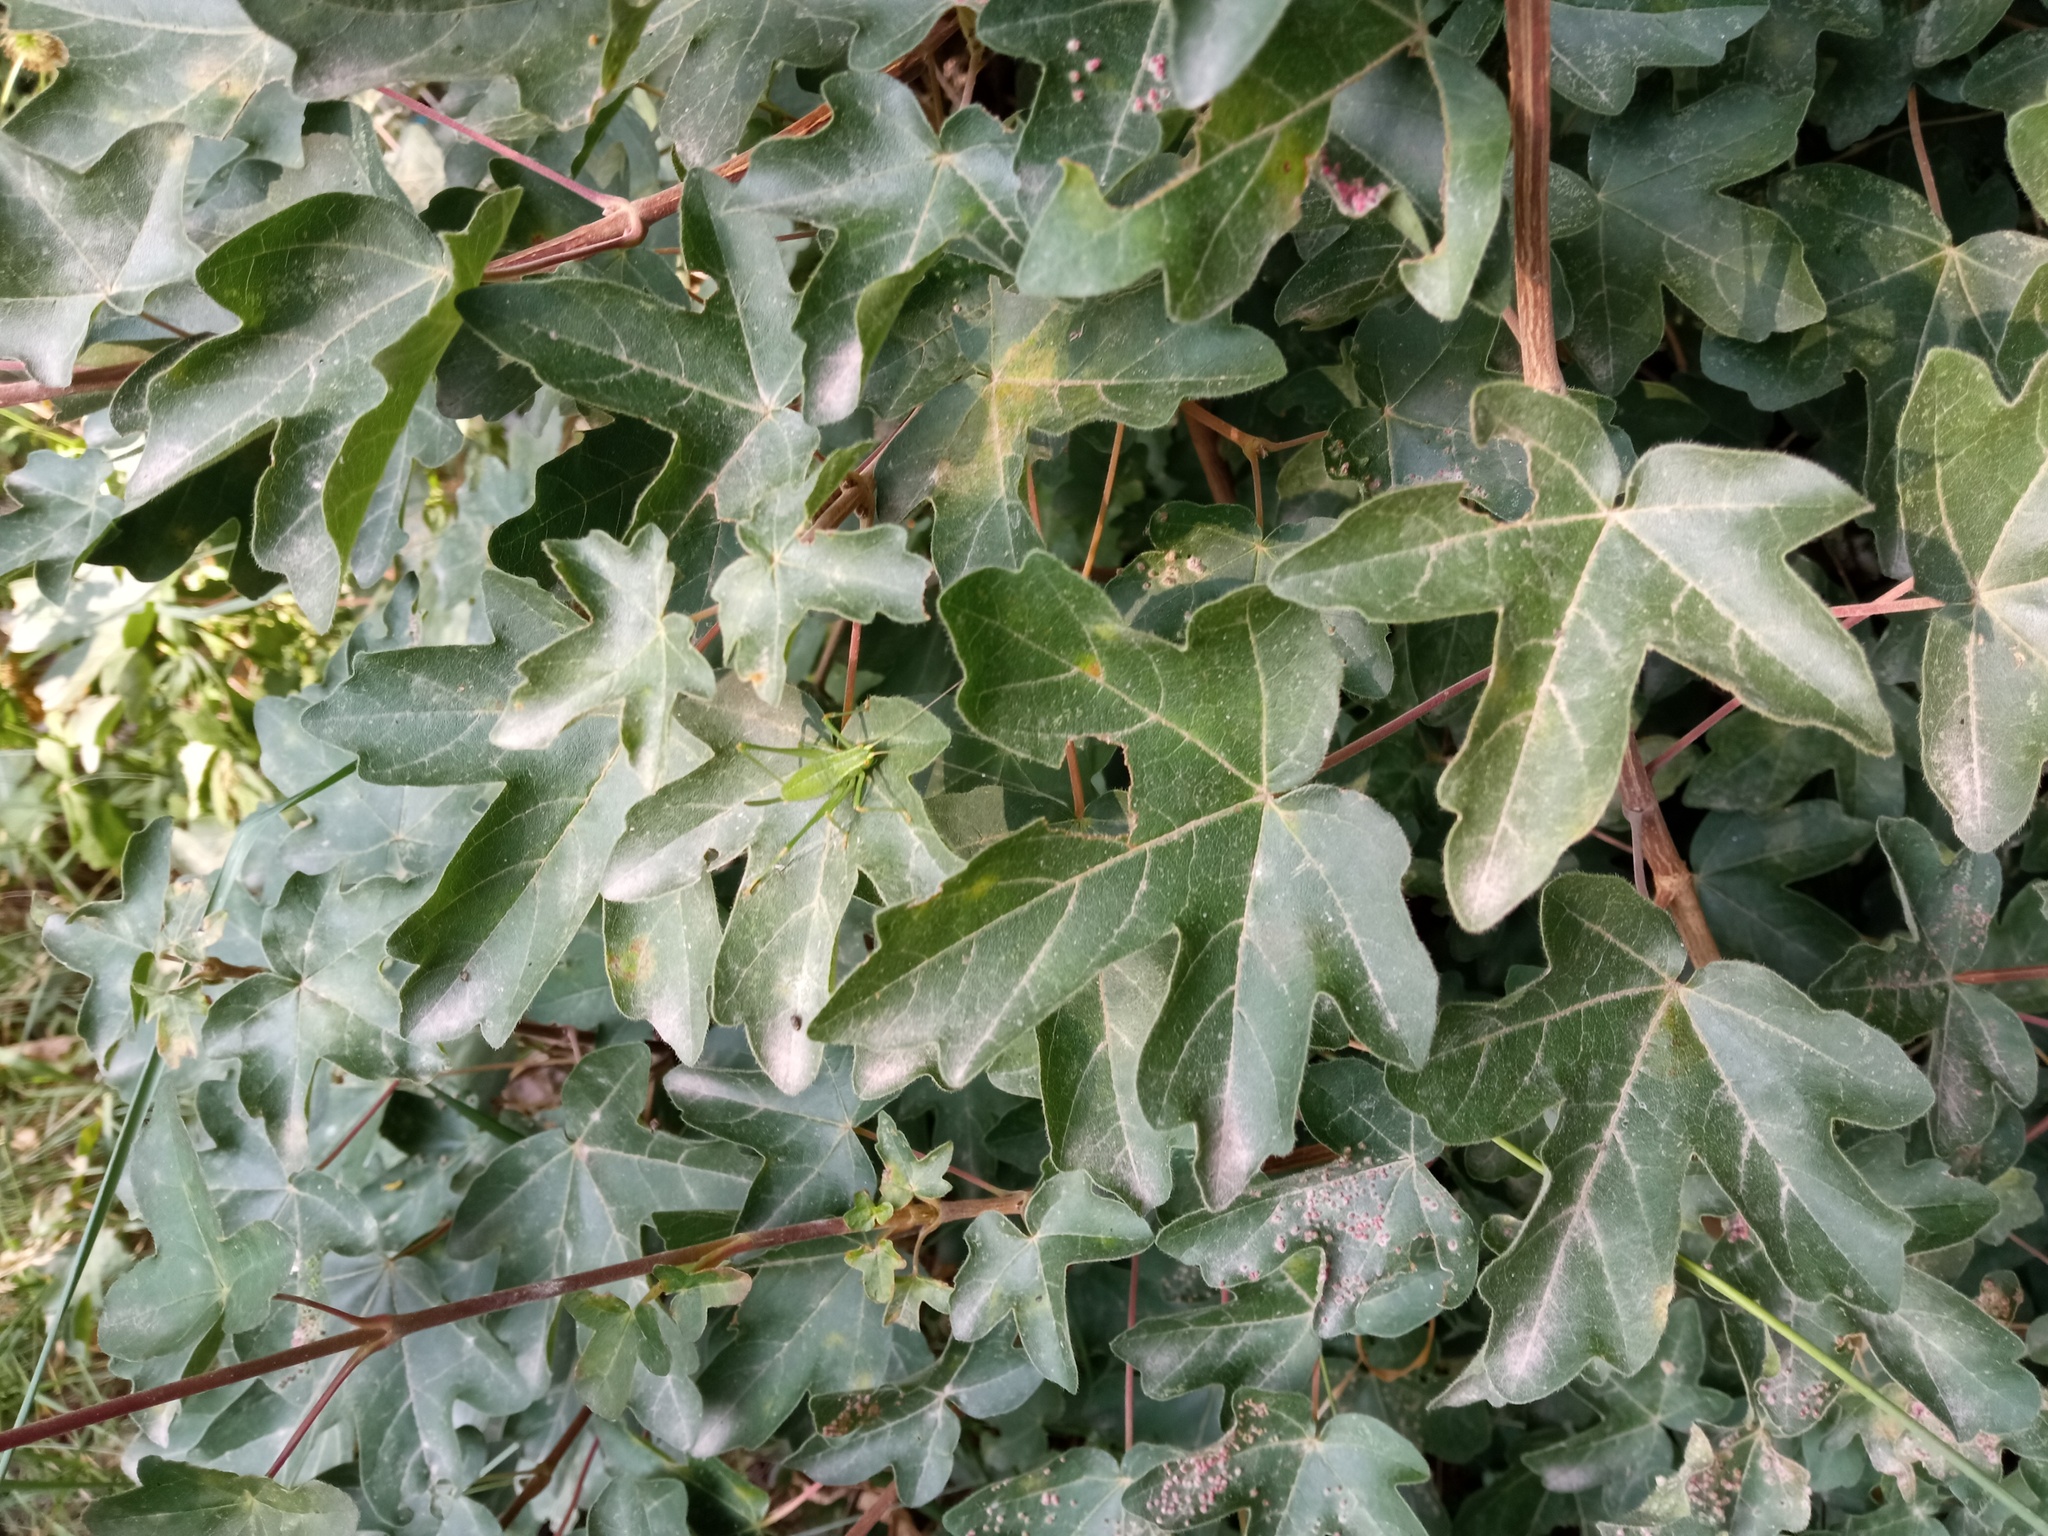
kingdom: Plantae
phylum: Tracheophyta
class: Magnoliopsida
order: Sapindales
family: Sapindaceae
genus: Acer
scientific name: Acer campestre
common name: Field maple
